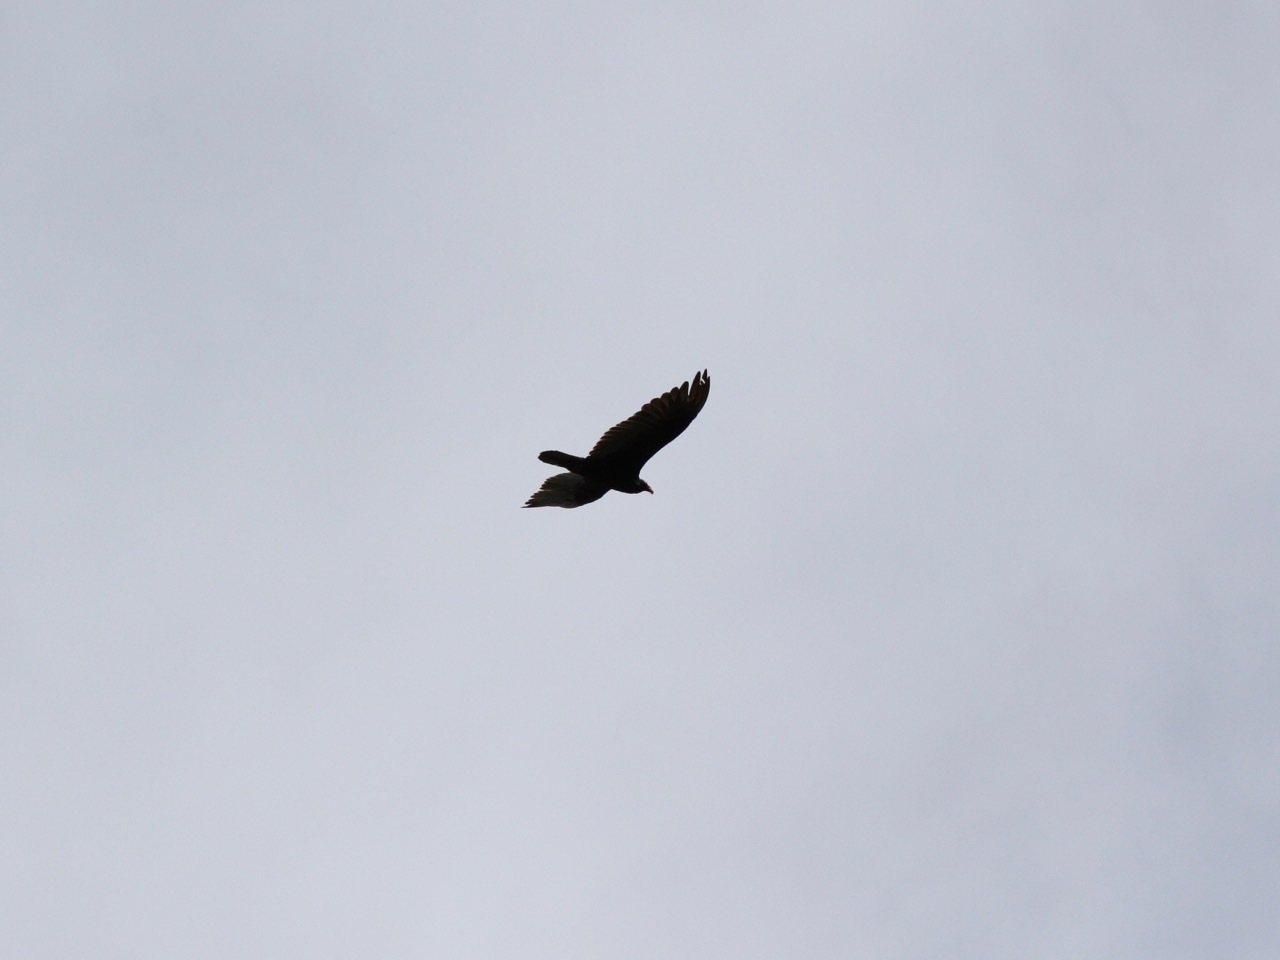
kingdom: Animalia
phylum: Chordata
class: Aves
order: Accipitriformes
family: Cathartidae
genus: Cathartes
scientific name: Cathartes aura
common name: Turkey vulture
